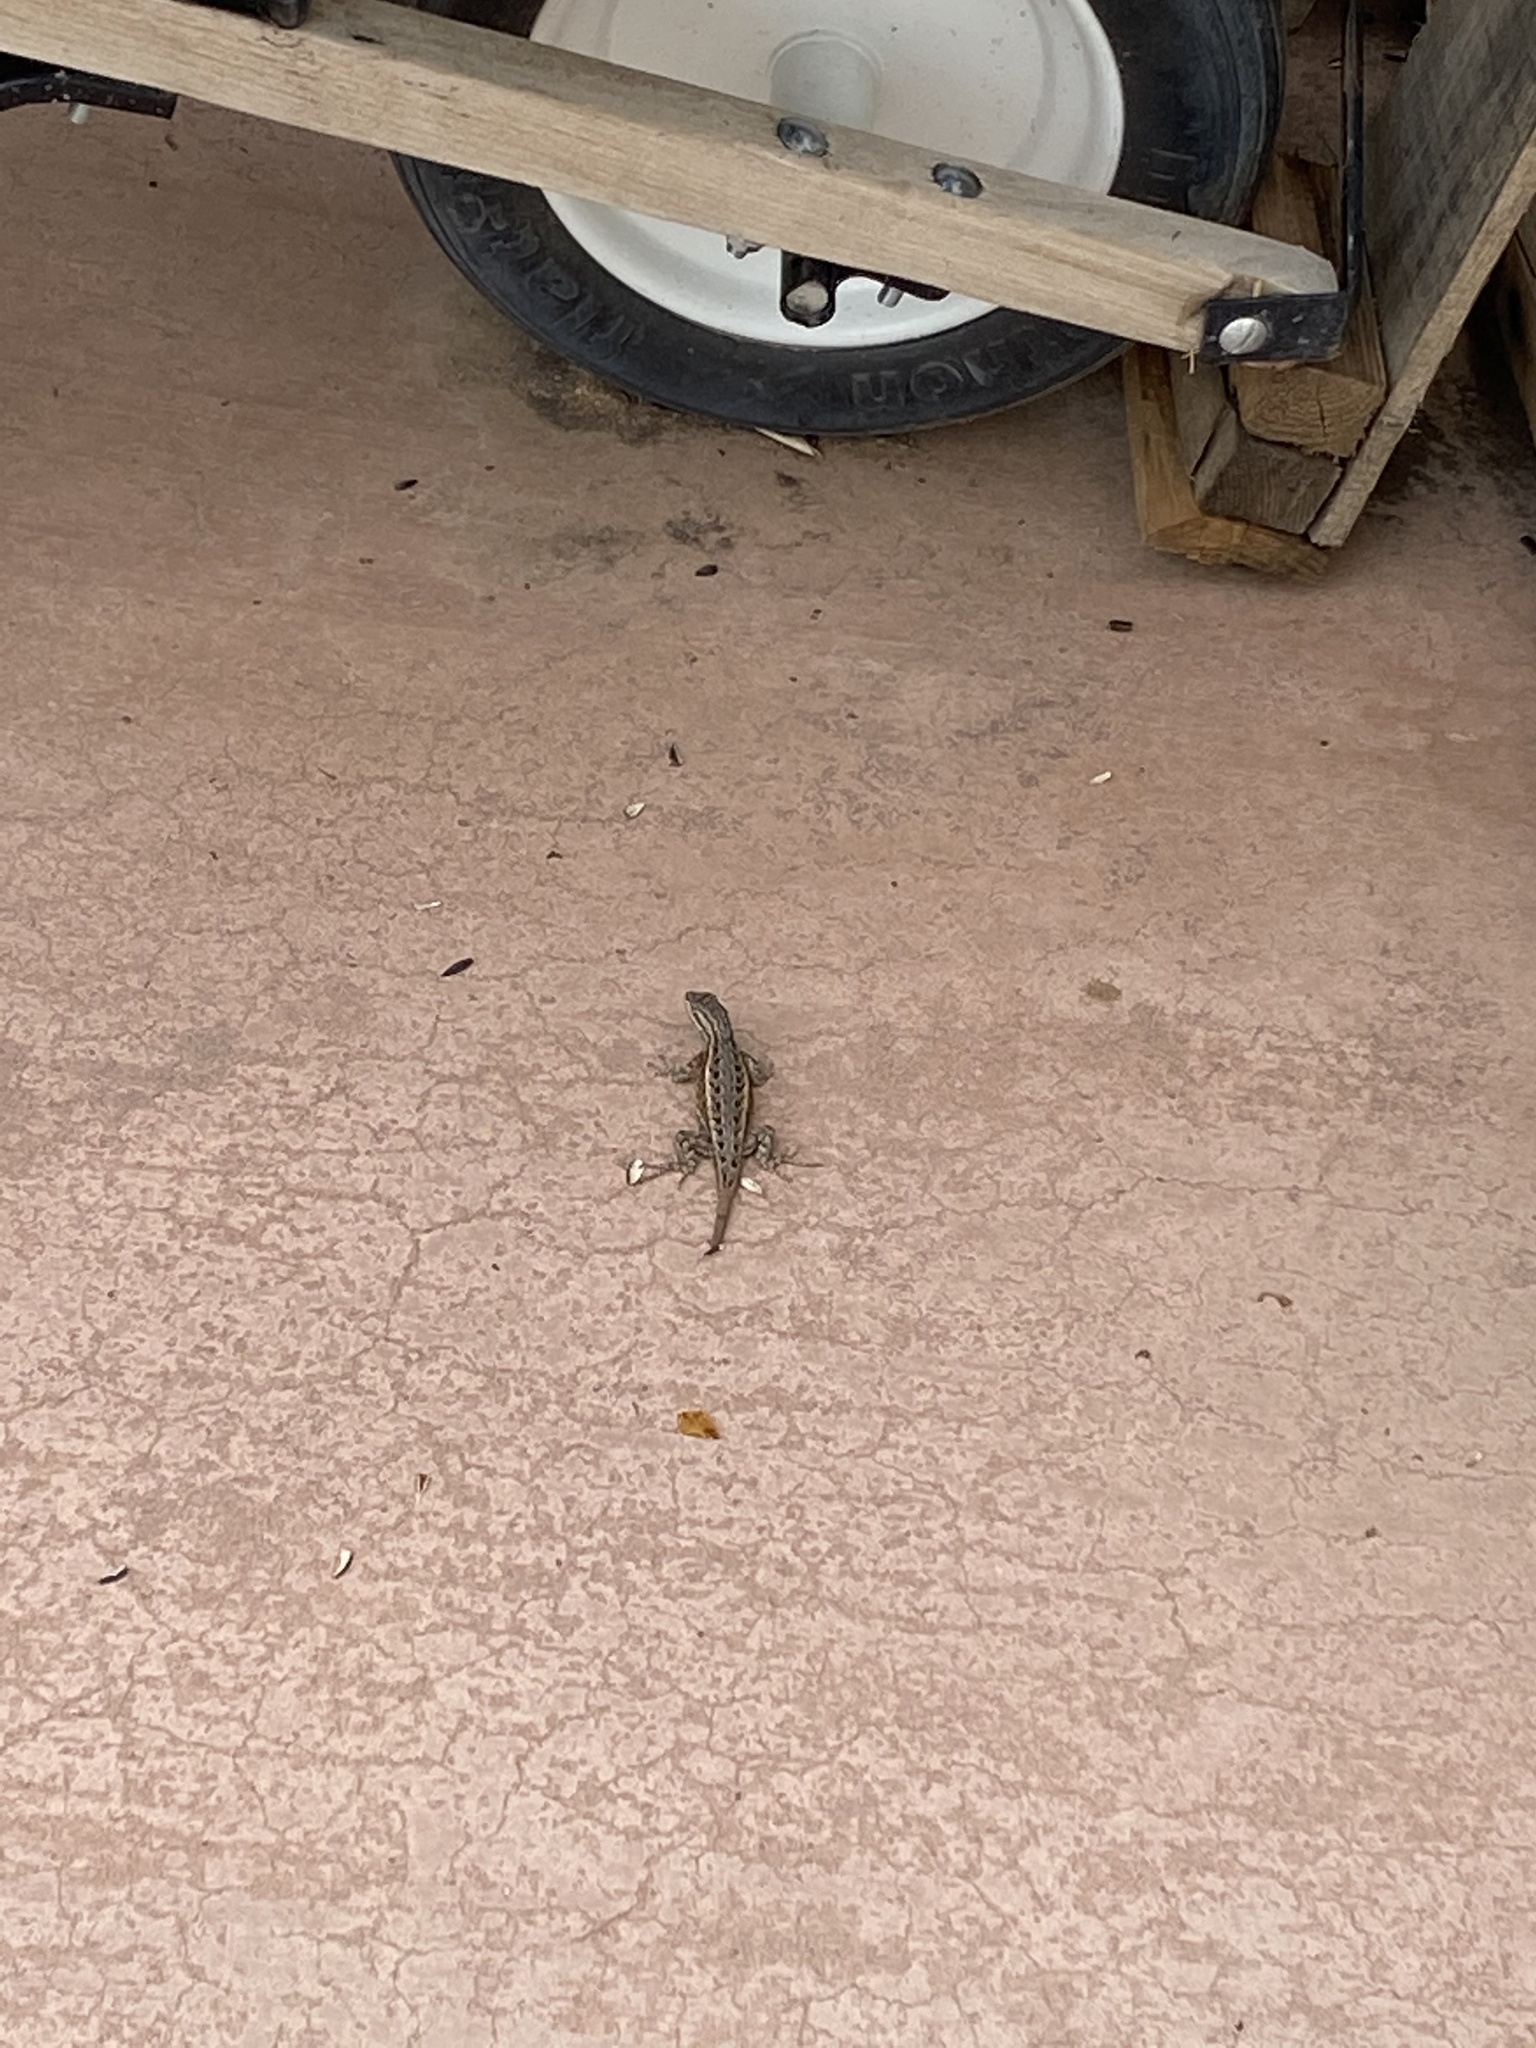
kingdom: Animalia
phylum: Chordata
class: Squamata
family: Phrynosomatidae
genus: Sceloporus
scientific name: Sceloporus cowlesi
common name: White sands prairie lizard
